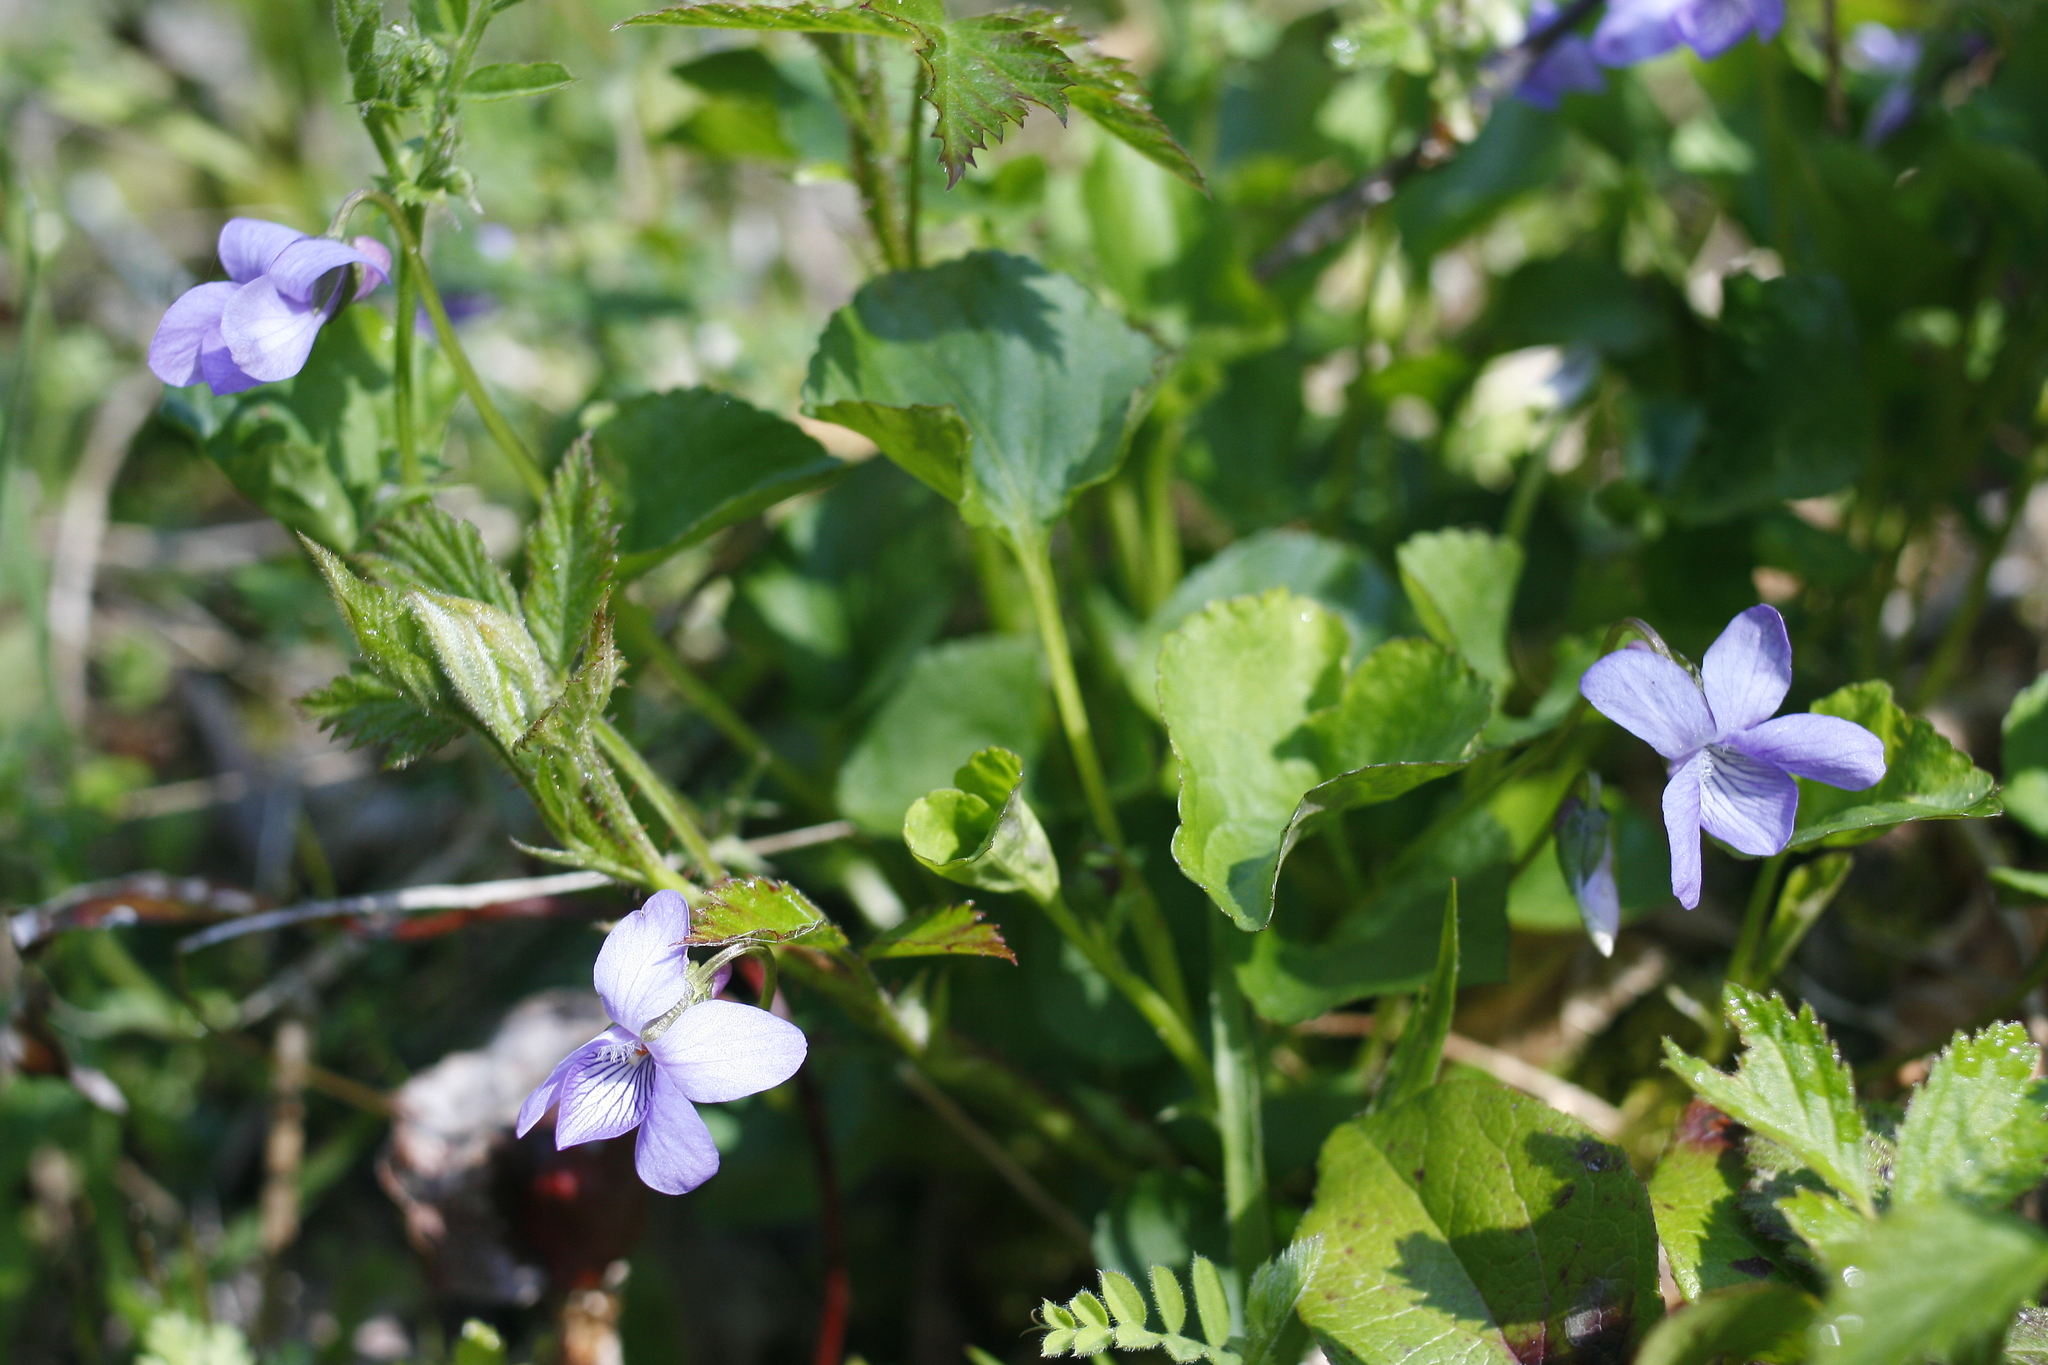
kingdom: Plantae
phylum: Tracheophyta
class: Magnoliopsida
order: Malpighiales
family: Violaceae
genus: Viola
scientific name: Viola howellii
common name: Howell's violet
